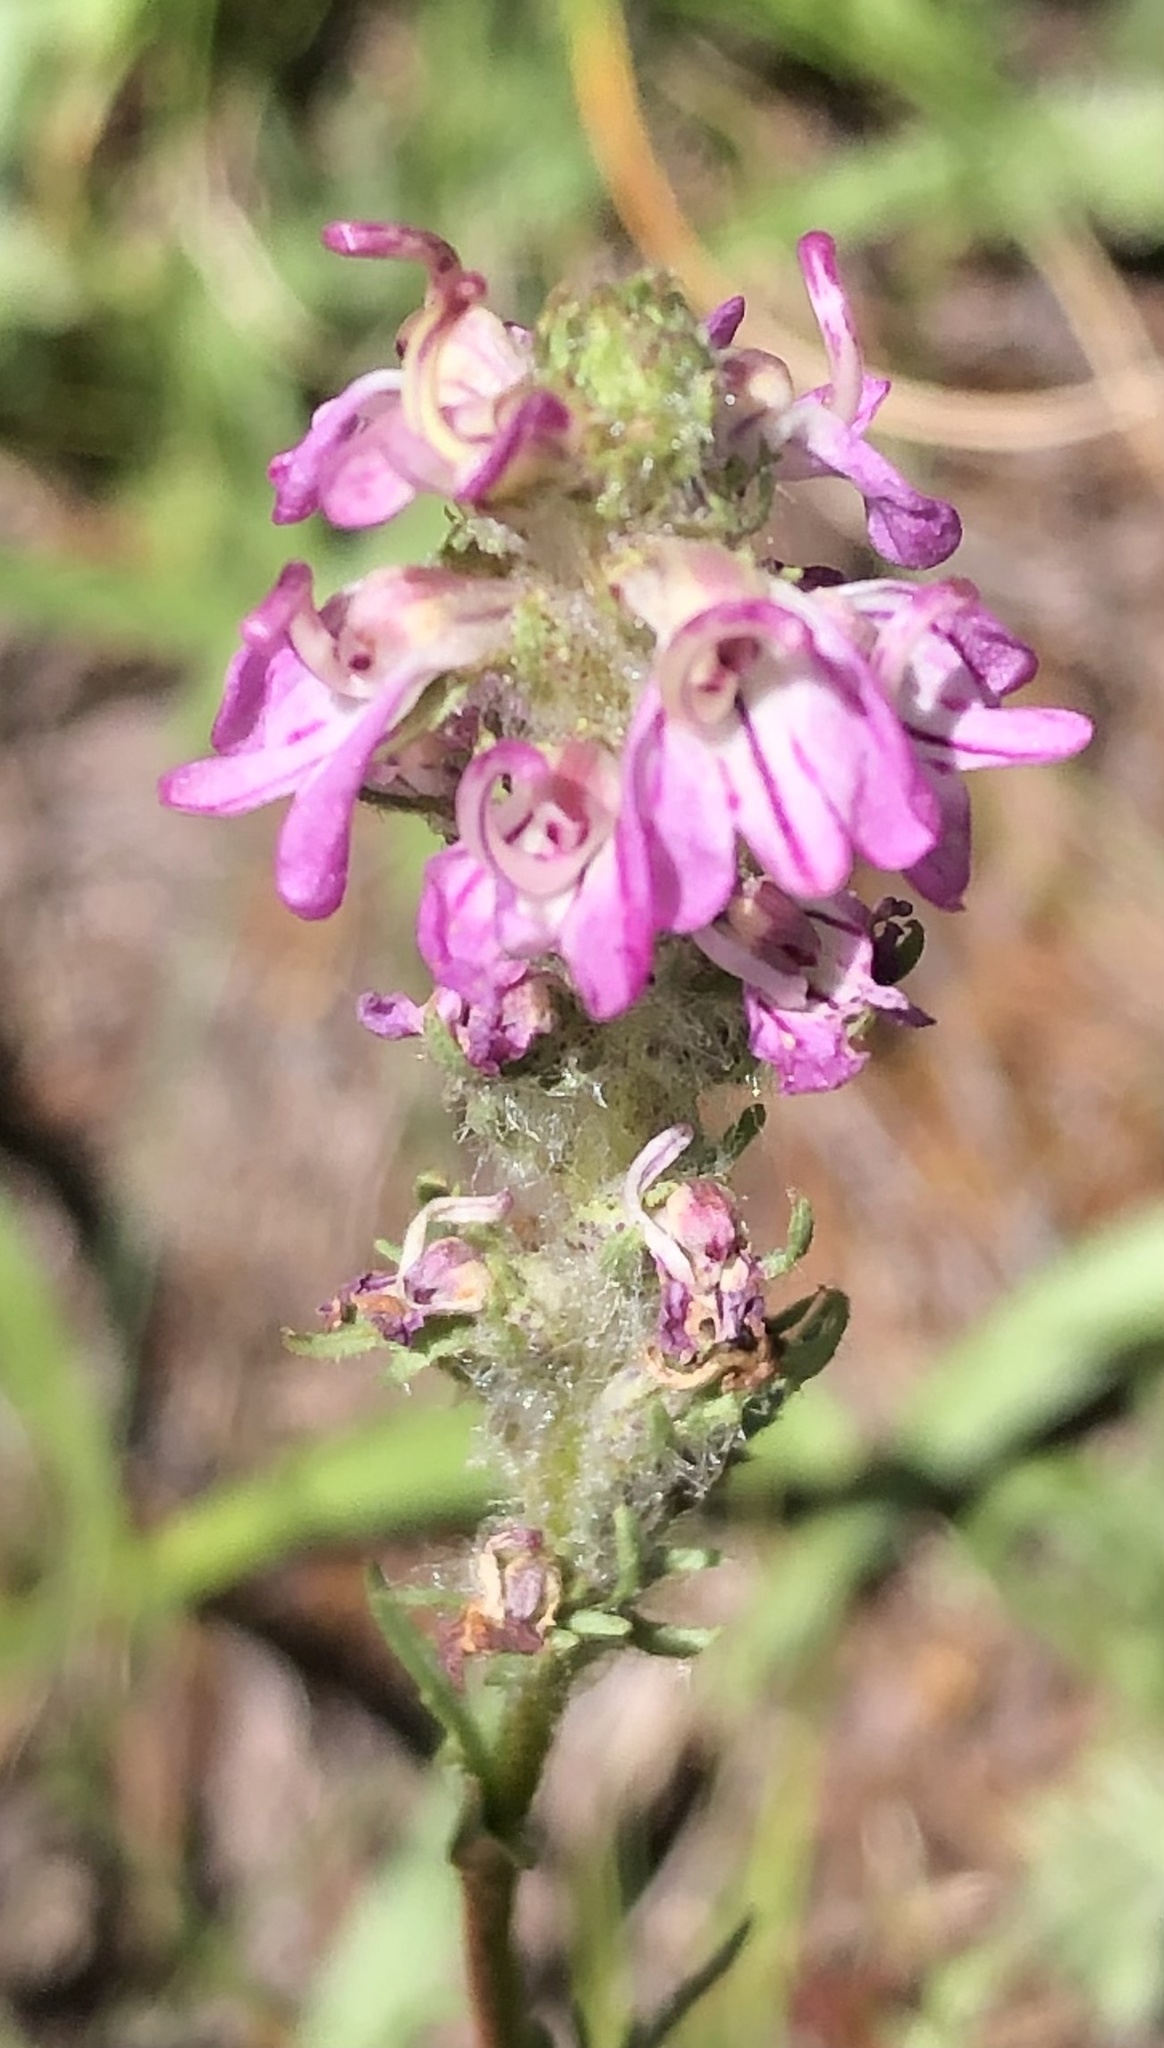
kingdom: Plantae
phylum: Tracheophyta
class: Magnoliopsida
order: Lamiales
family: Orobanchaceae
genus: Pedicularis
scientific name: Pedicularis attollens
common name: Slender pedicularis
